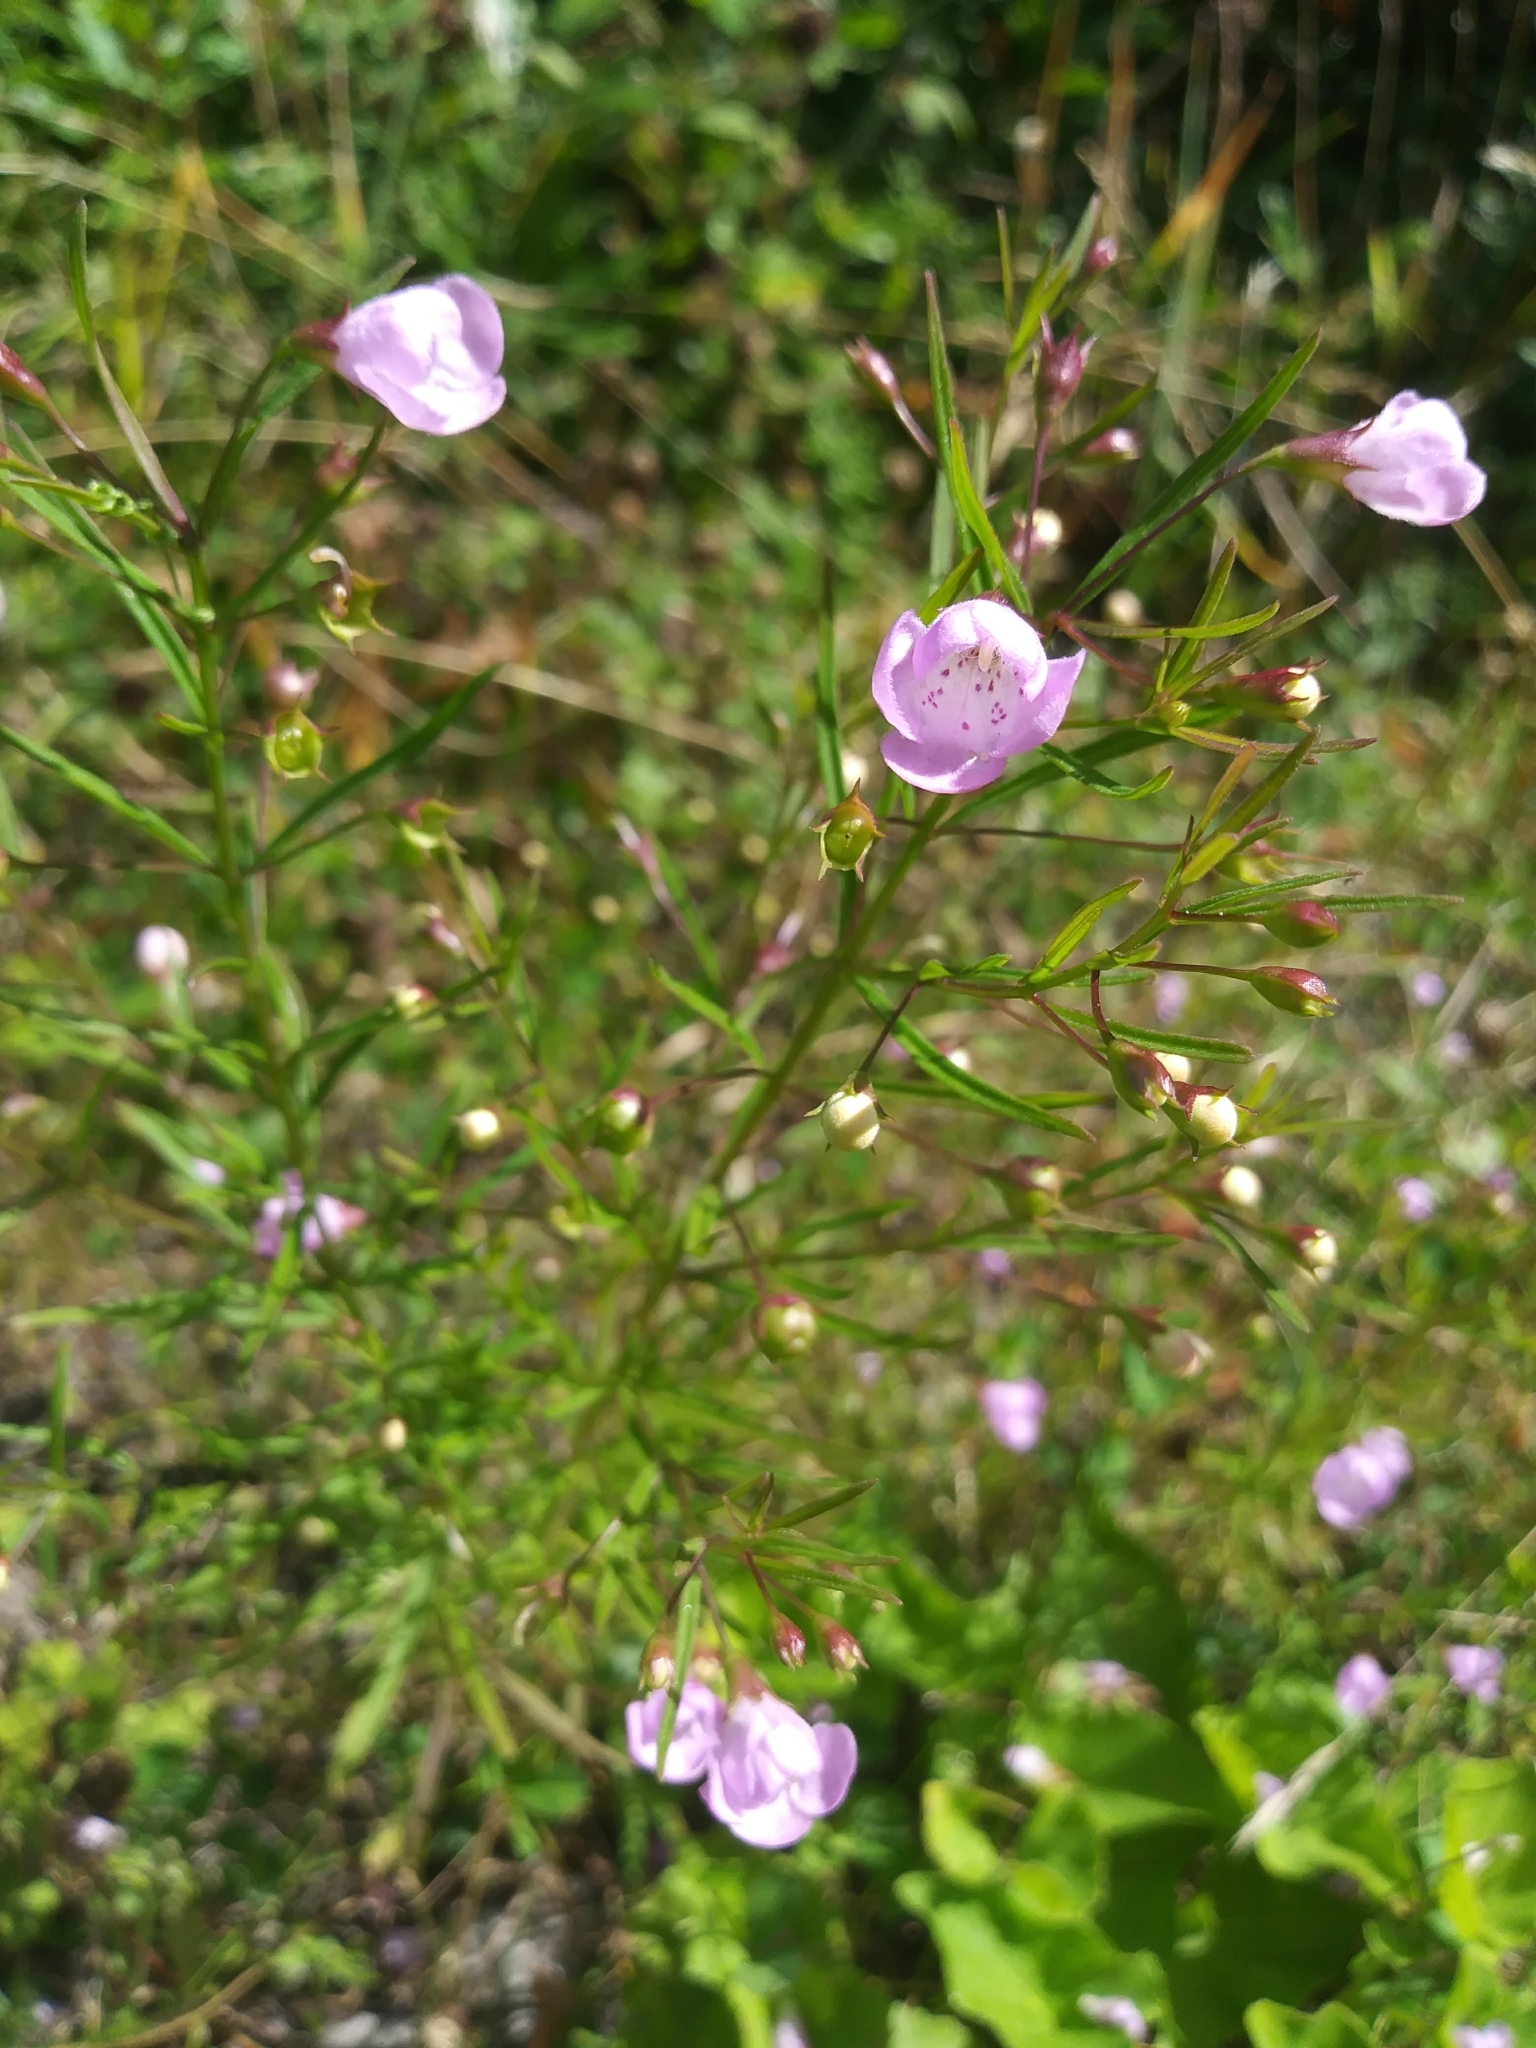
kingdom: Plantae
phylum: Tracheophyta
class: Magnoliopsida
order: Lamiales
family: Orobanchaceae
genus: Agalinis
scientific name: Agalinis tenuifolia
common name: Slender agalinis
